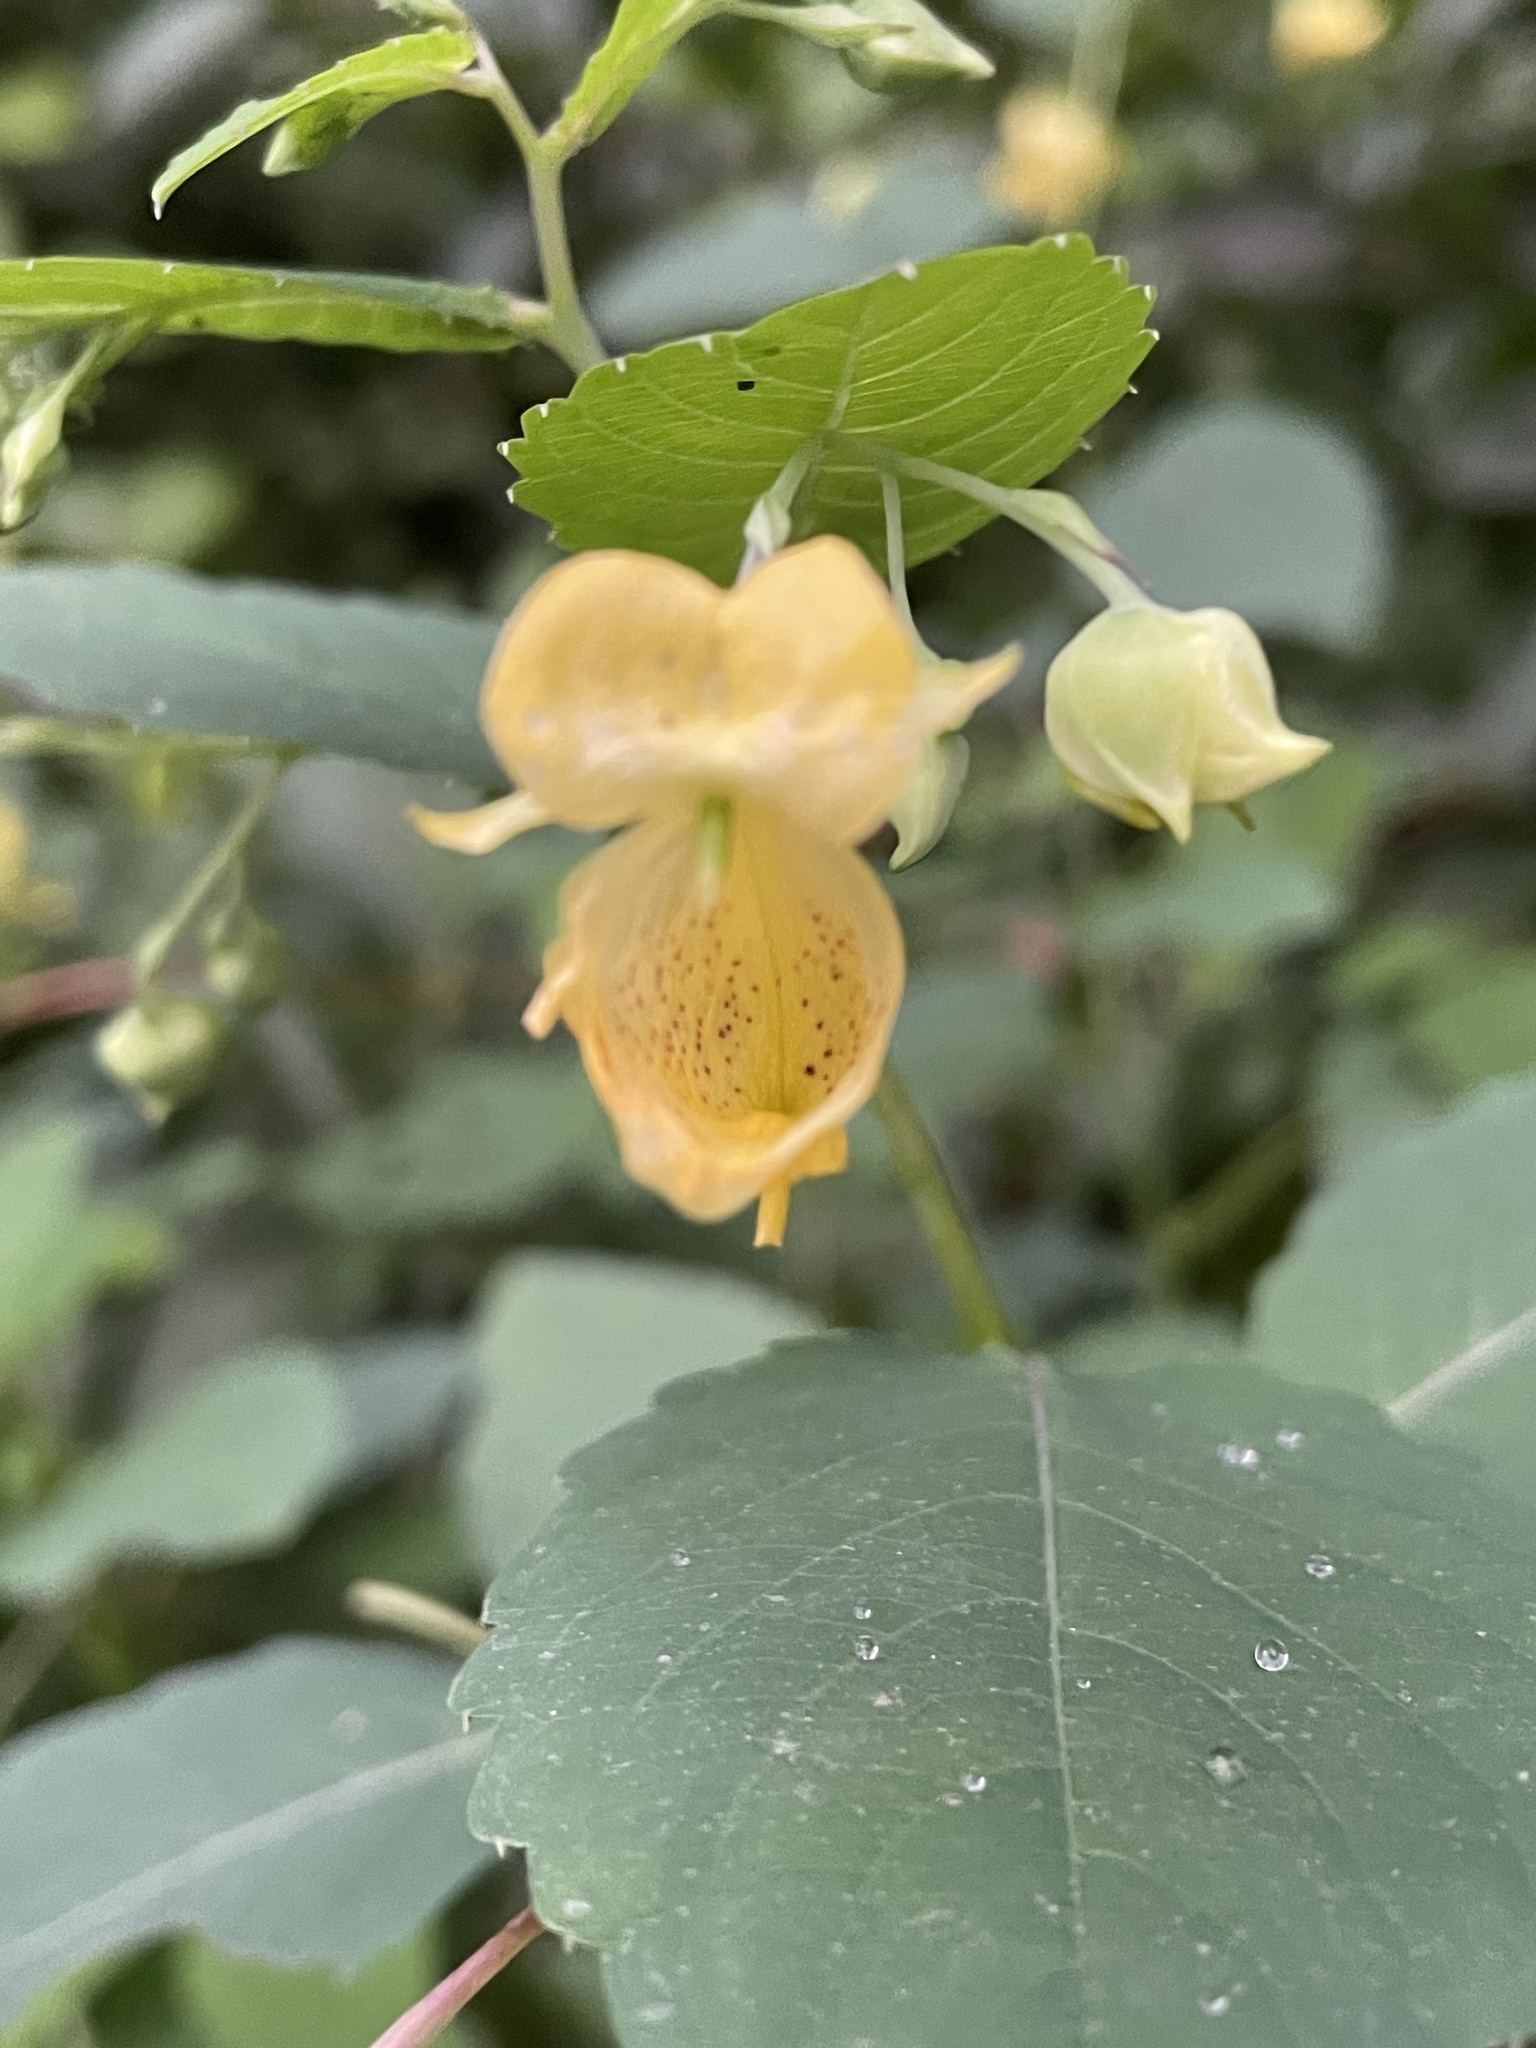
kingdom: Plantae
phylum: Tracheophyta
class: Magnoliopsida
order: Ericales
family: Balsaminaceae
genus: Impatiens
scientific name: Impatiens pallida
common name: Pale snapweed
